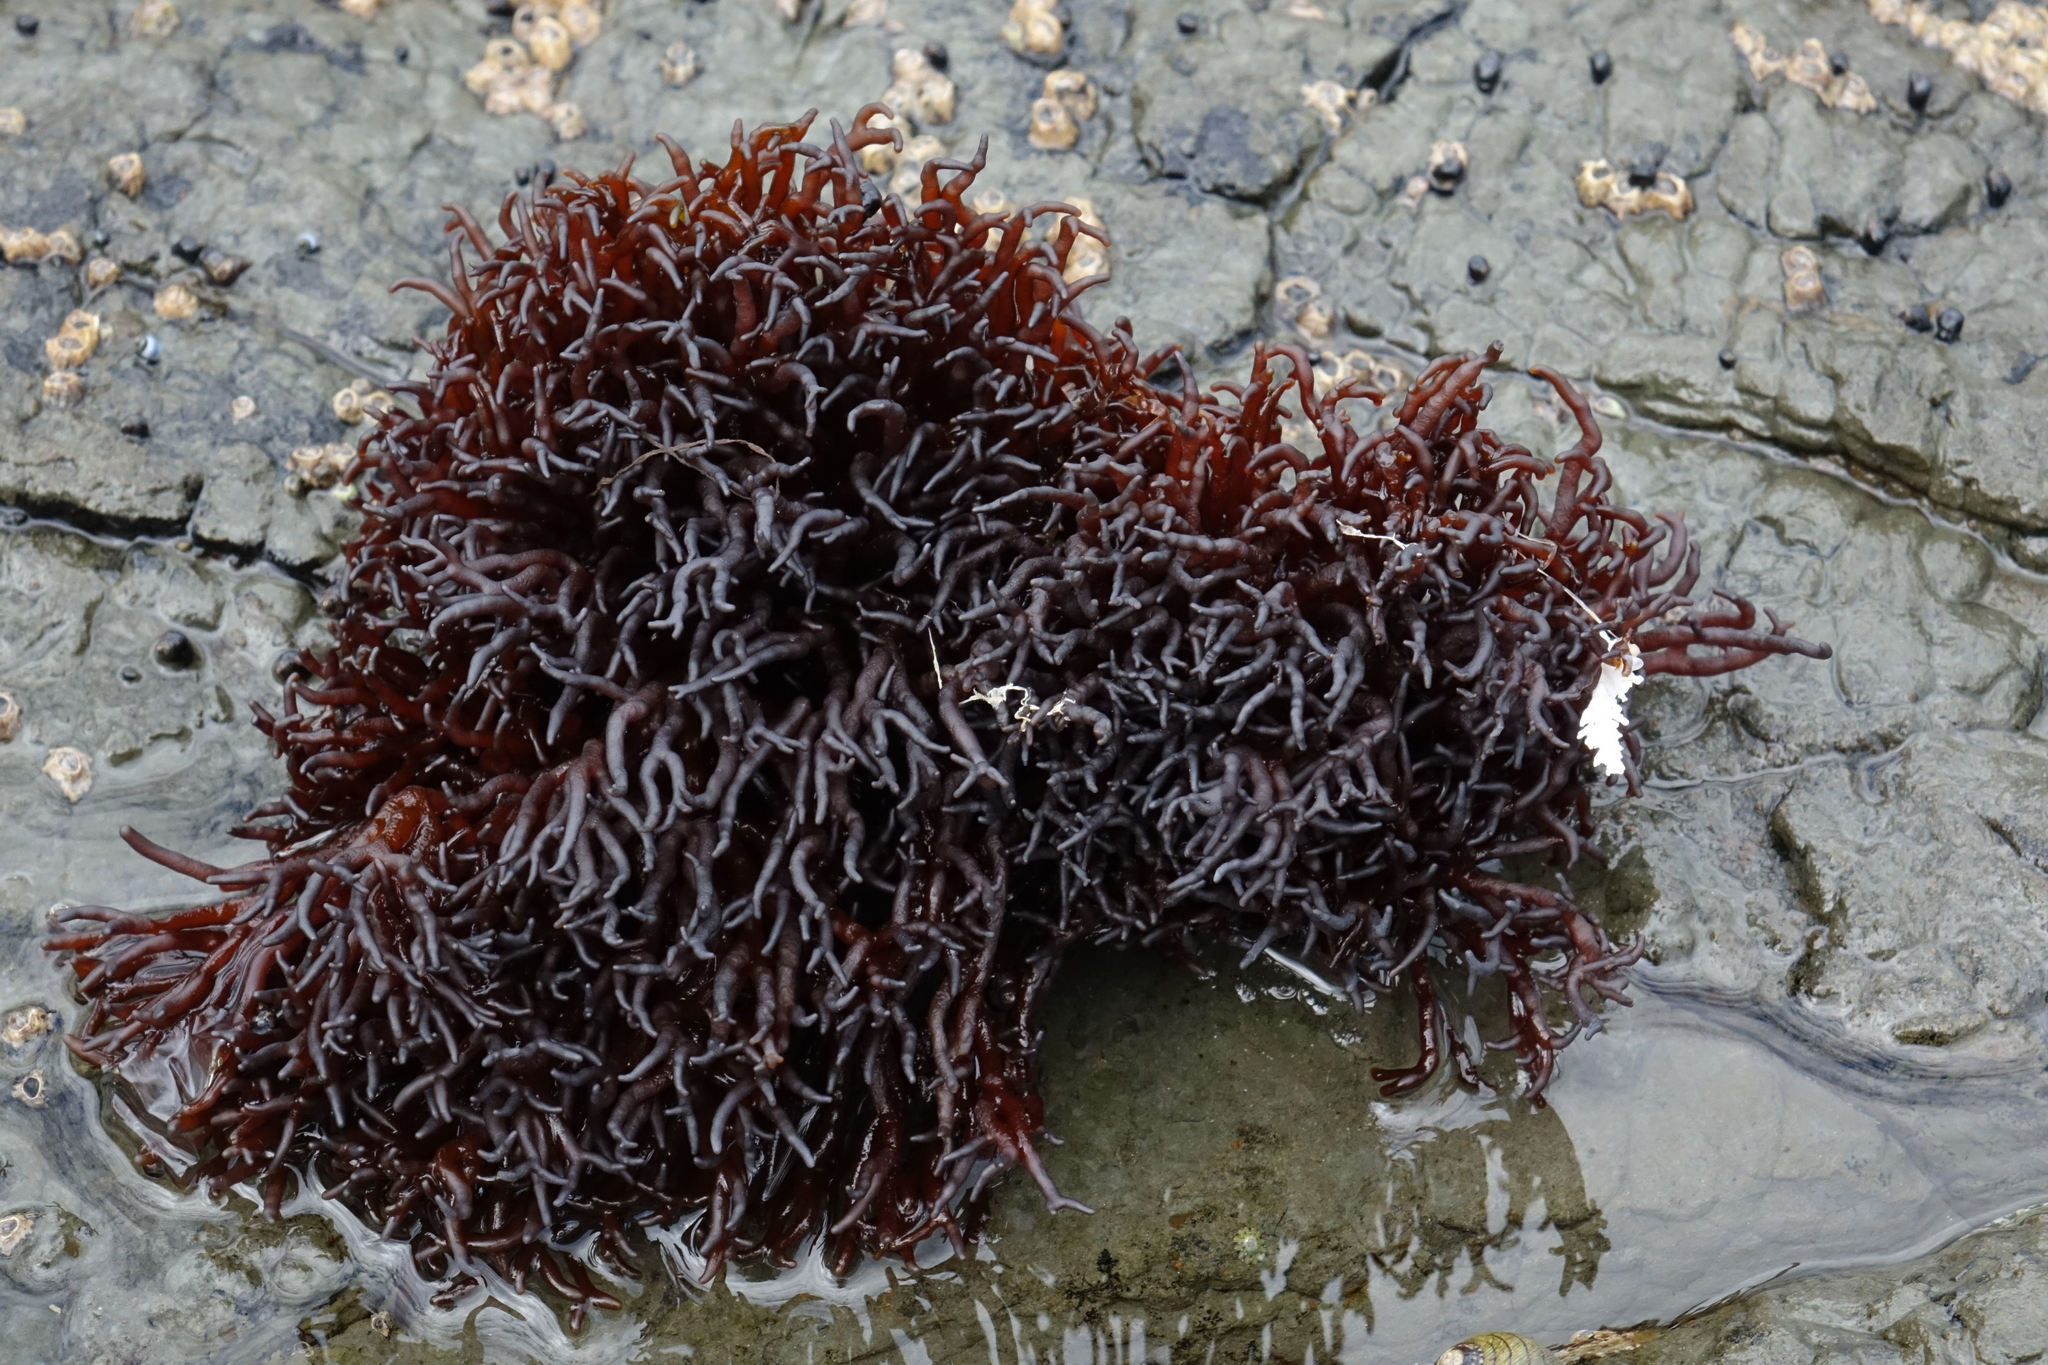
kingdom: Plantae
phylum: Rhodophyta
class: Florideophyceae
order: Hildenbrandiales
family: Hildenbrandiaceae
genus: Apophlaea
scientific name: Apophlaea lyallii
